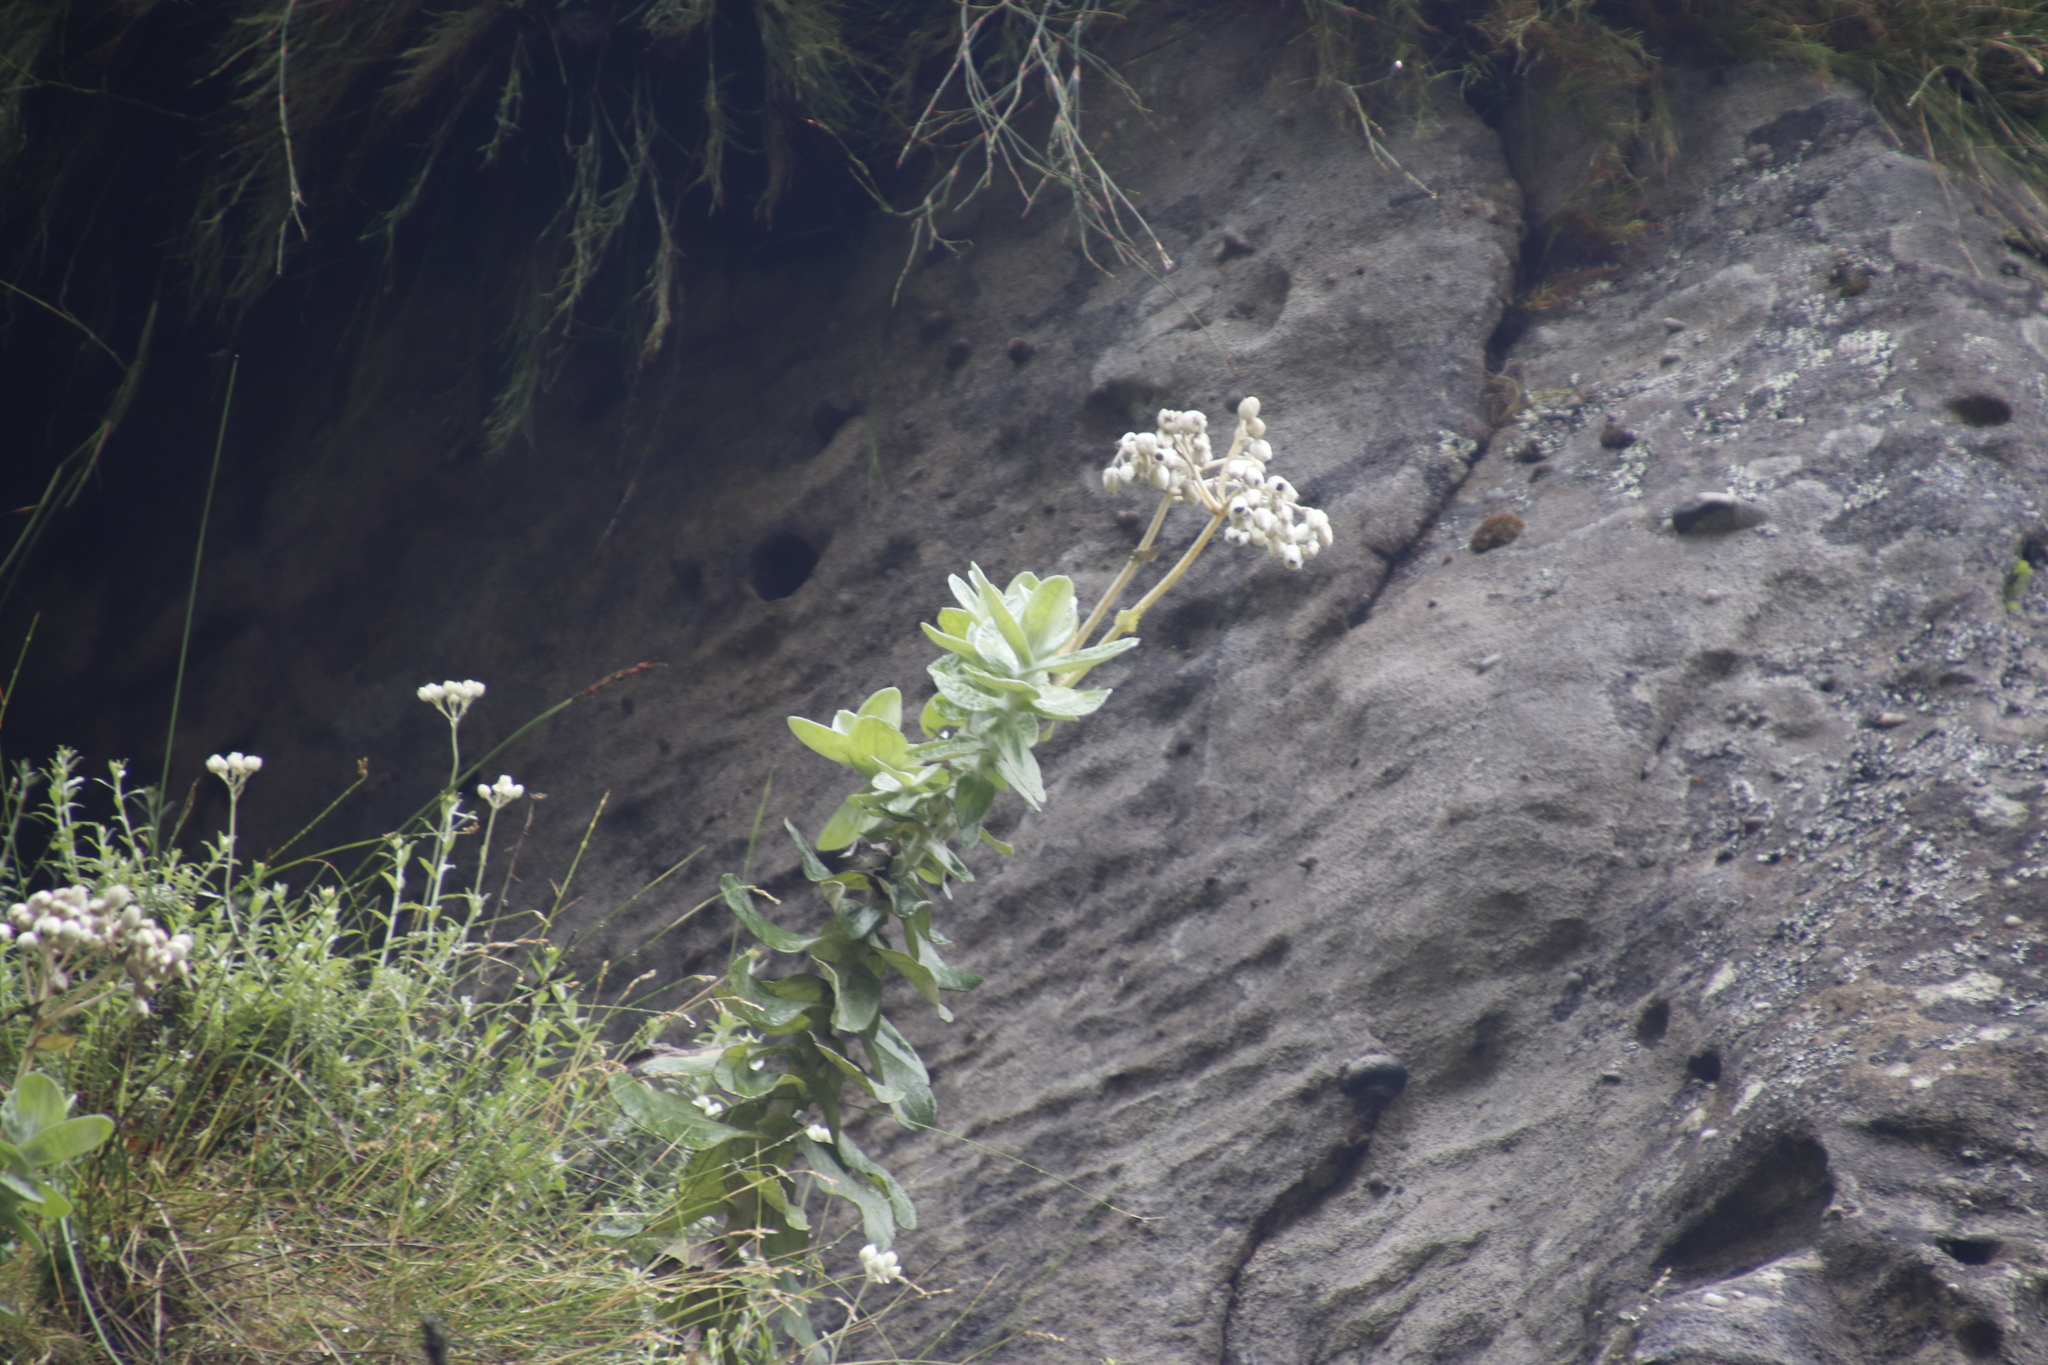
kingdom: Plantae
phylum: Tracheophyta
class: Magnoliopsida
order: Asterales
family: Asteraceae
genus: Helichrysum
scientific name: Helichrysum fruticans
